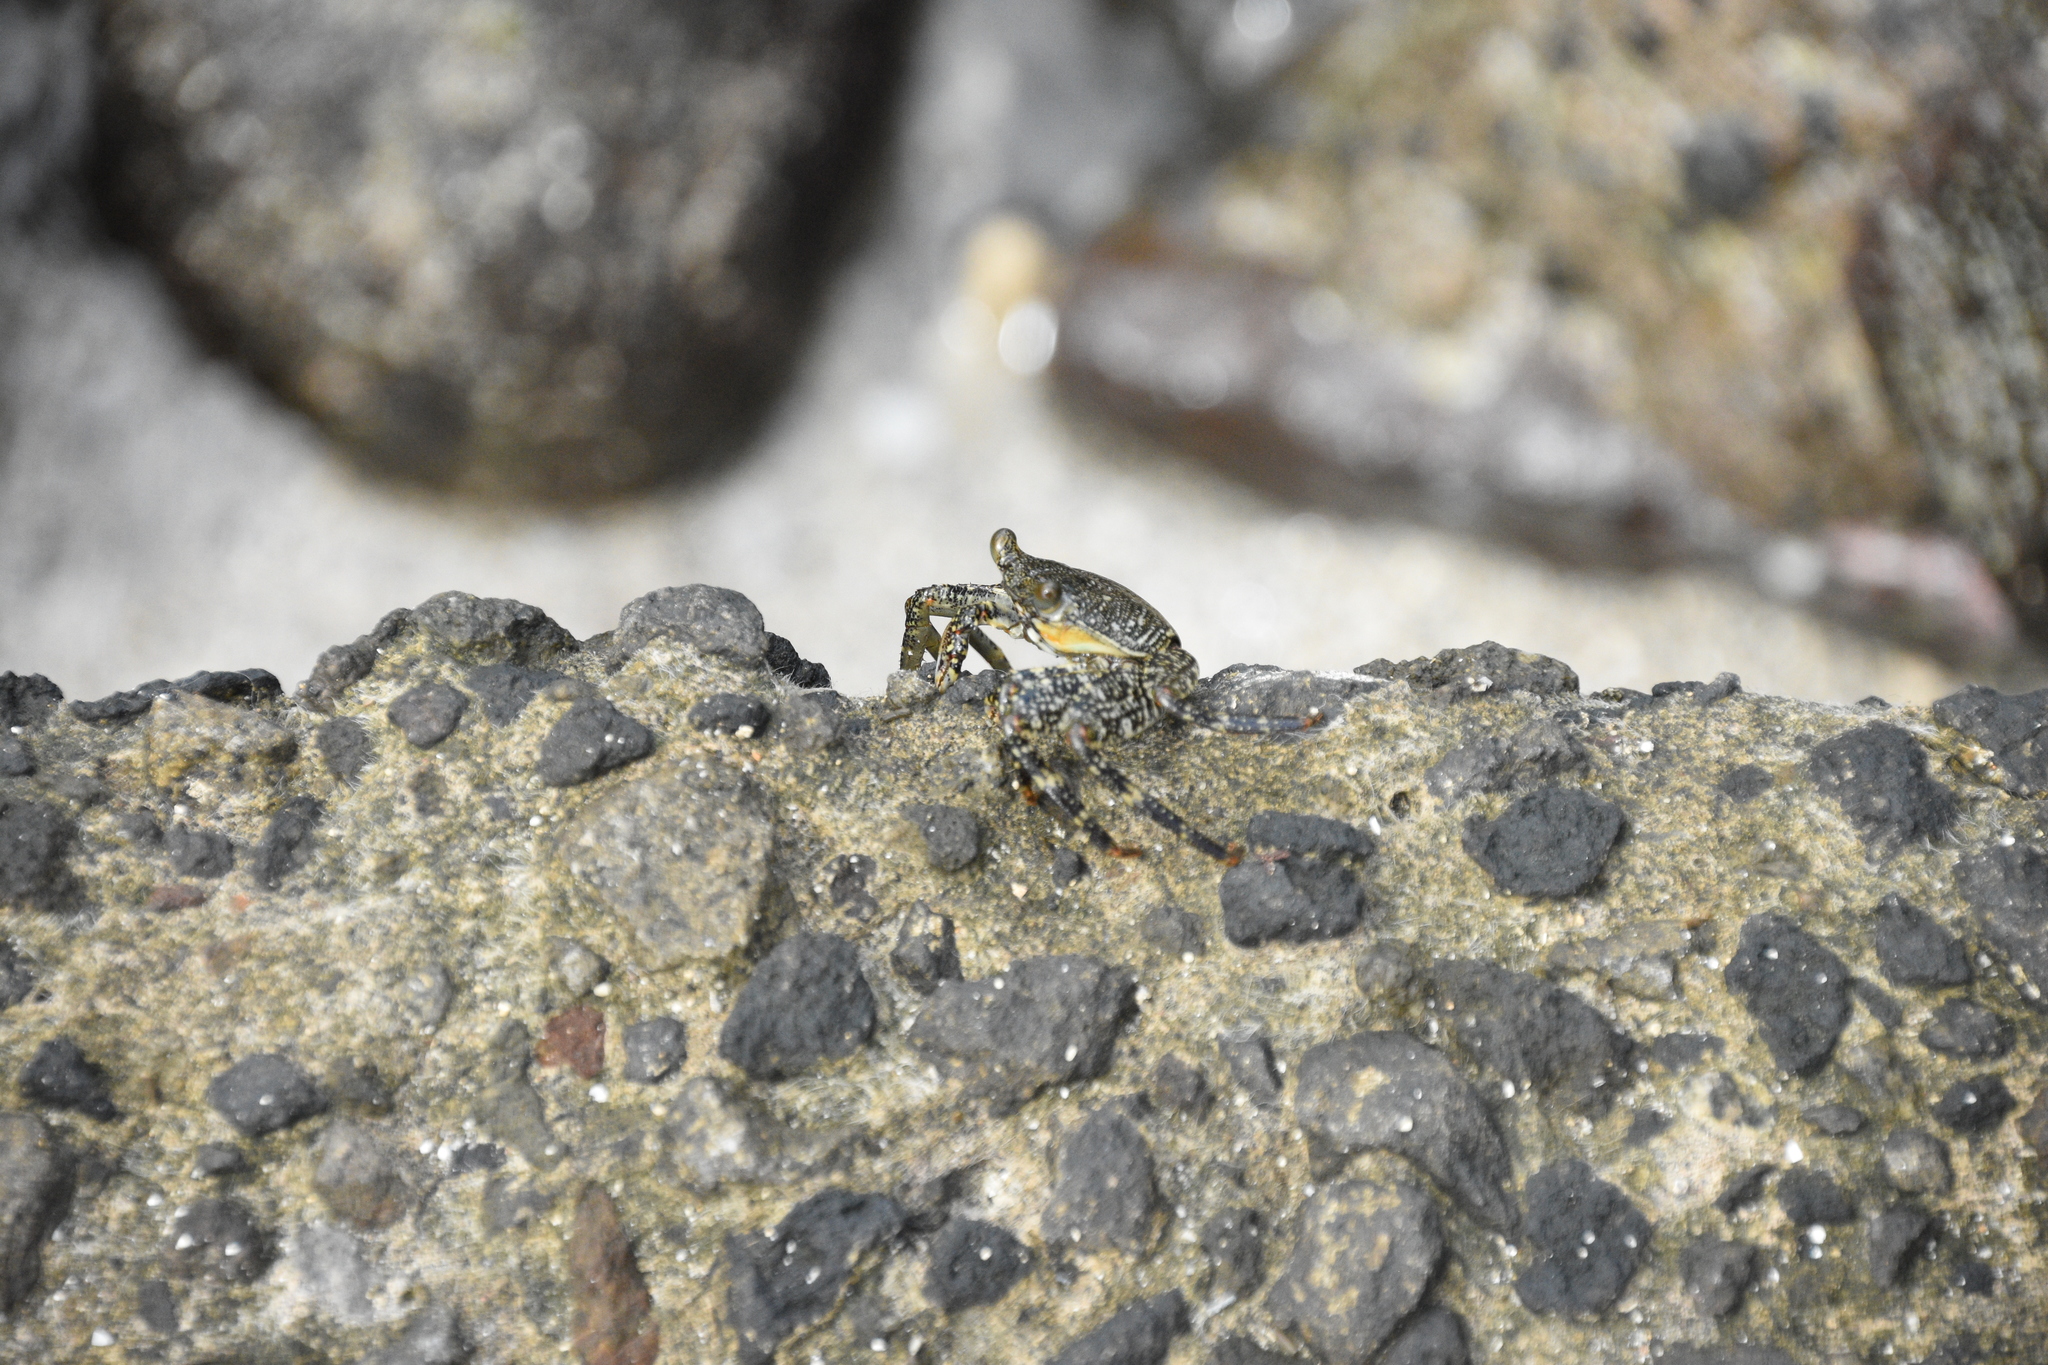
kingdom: Animalia
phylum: Arthropoda
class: Malacostraca
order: Decapoda
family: Grapsidae
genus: Grapsus
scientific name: Grapsus grapsus
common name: Sally lightfoot
